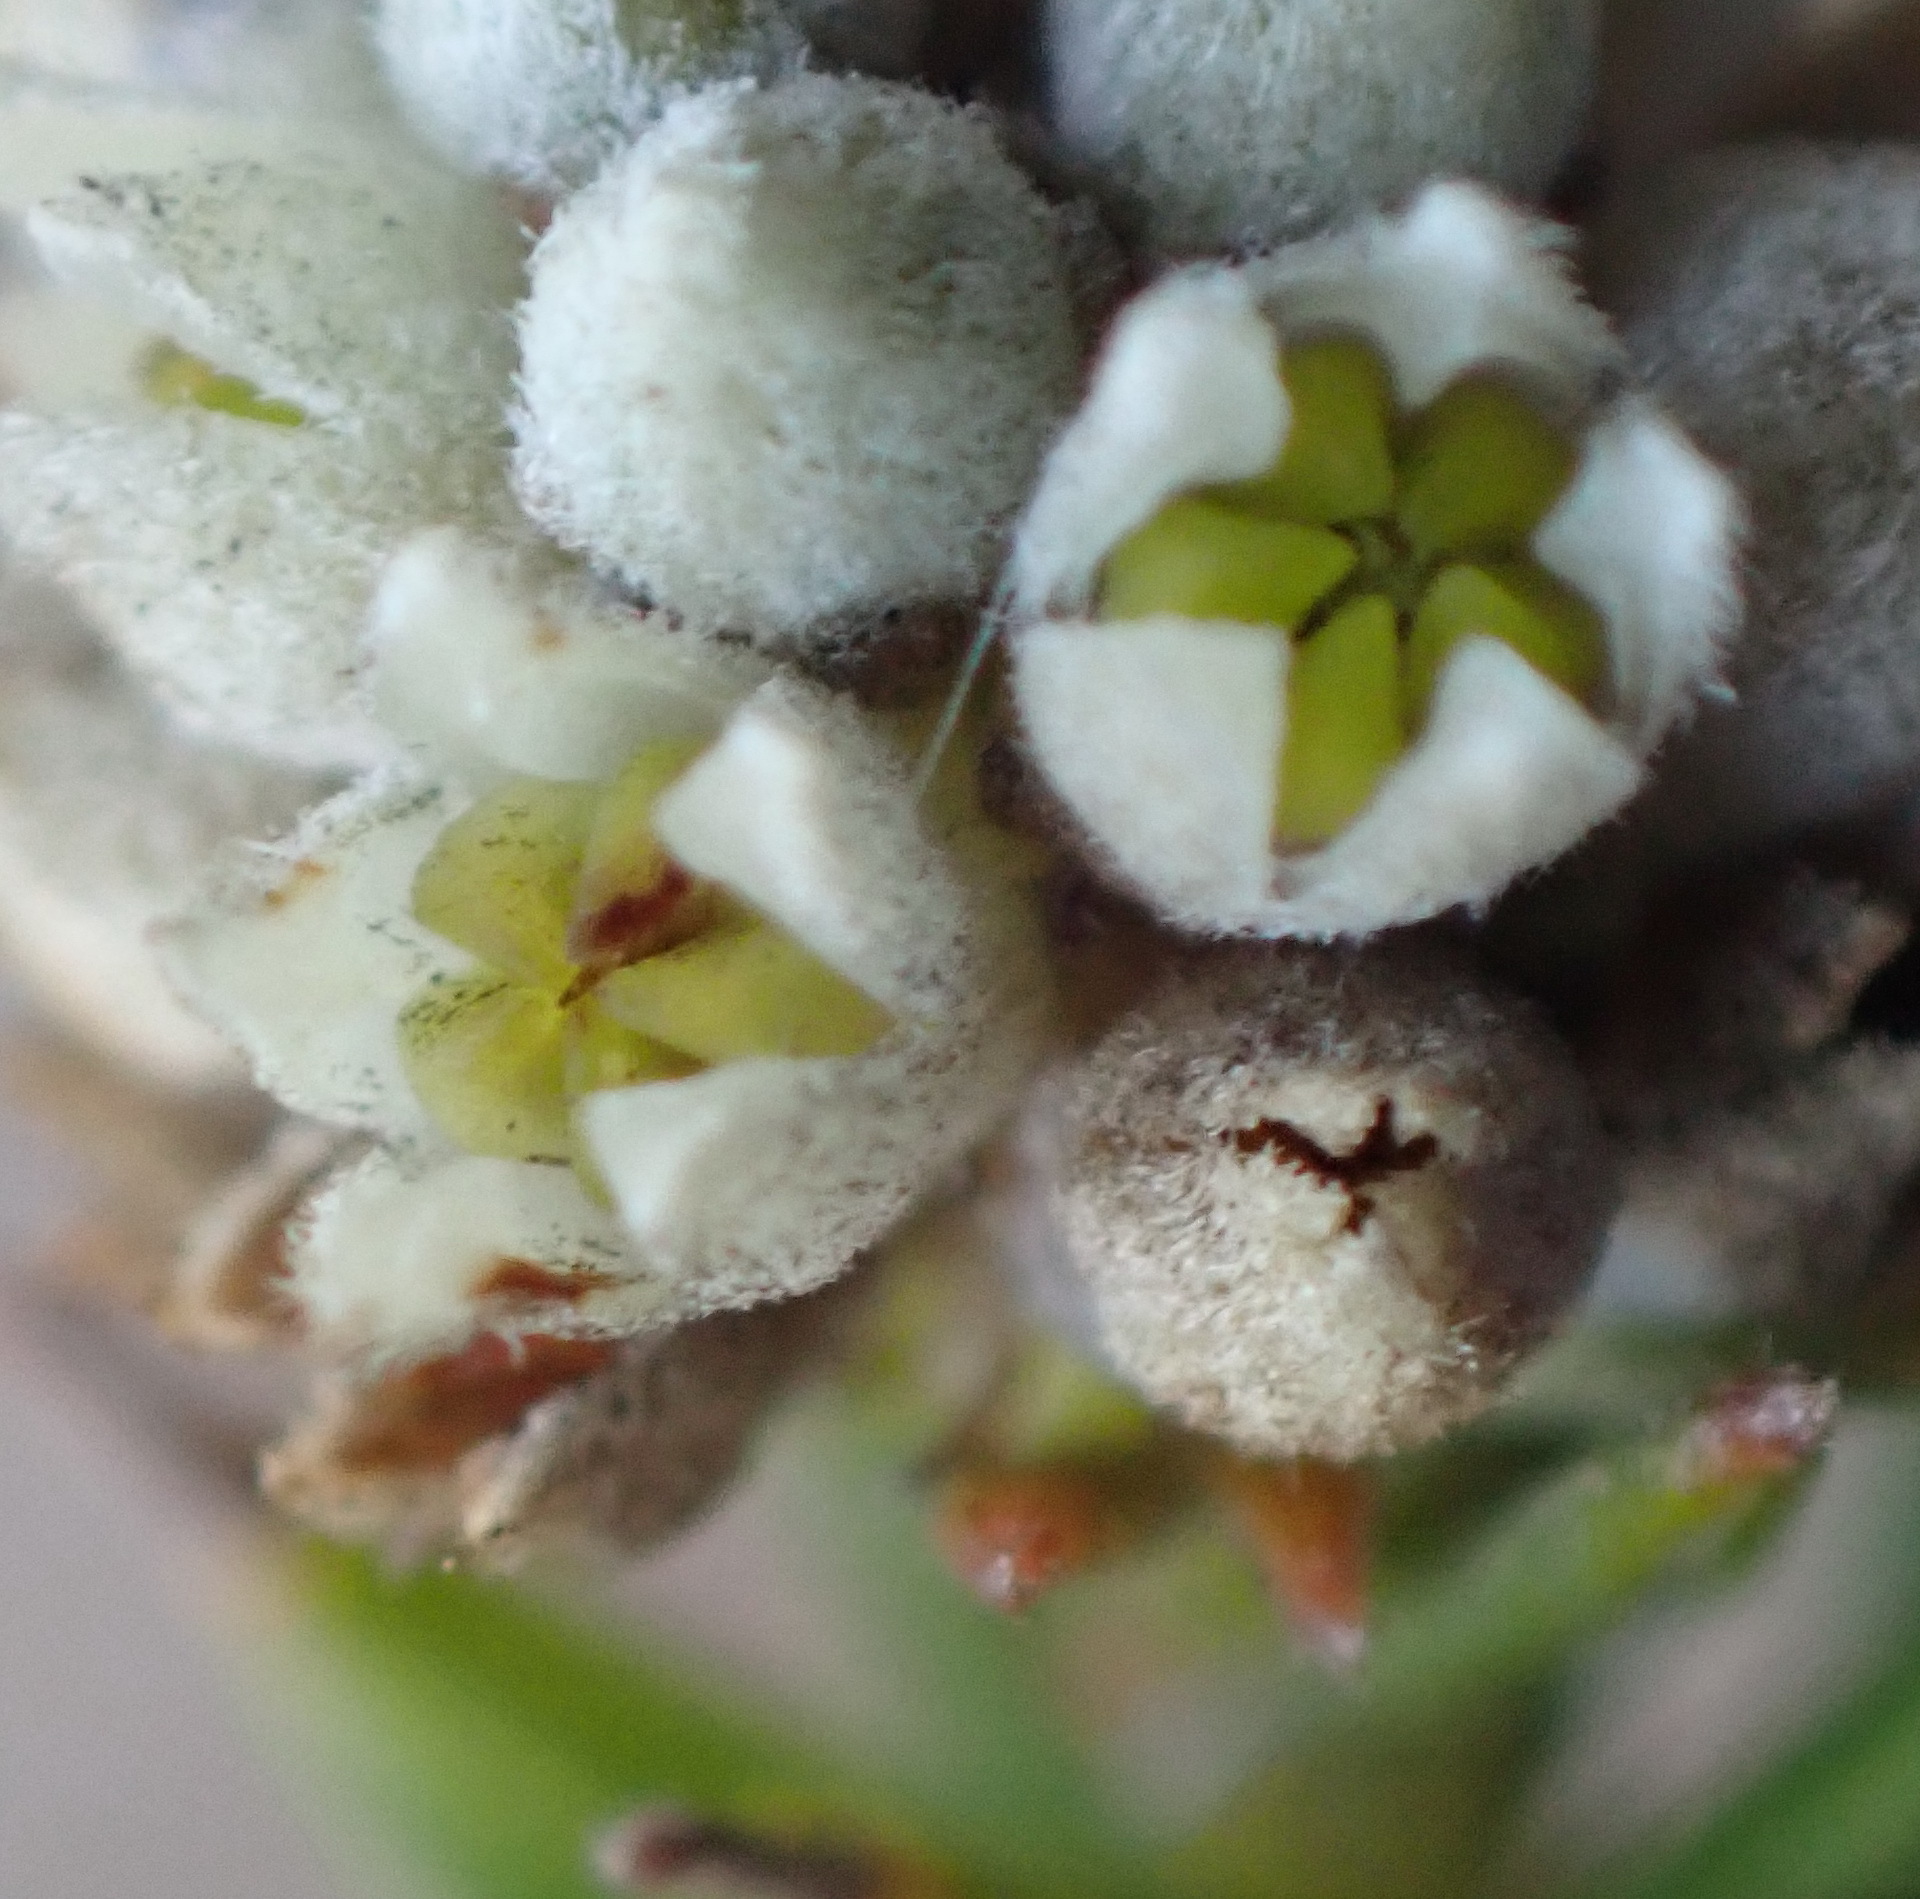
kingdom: Plantae
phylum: Tracheophyta
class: Magnoliopsida
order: Rosales
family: Rhamnaceae
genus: Phylica
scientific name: Phylica imberbis
